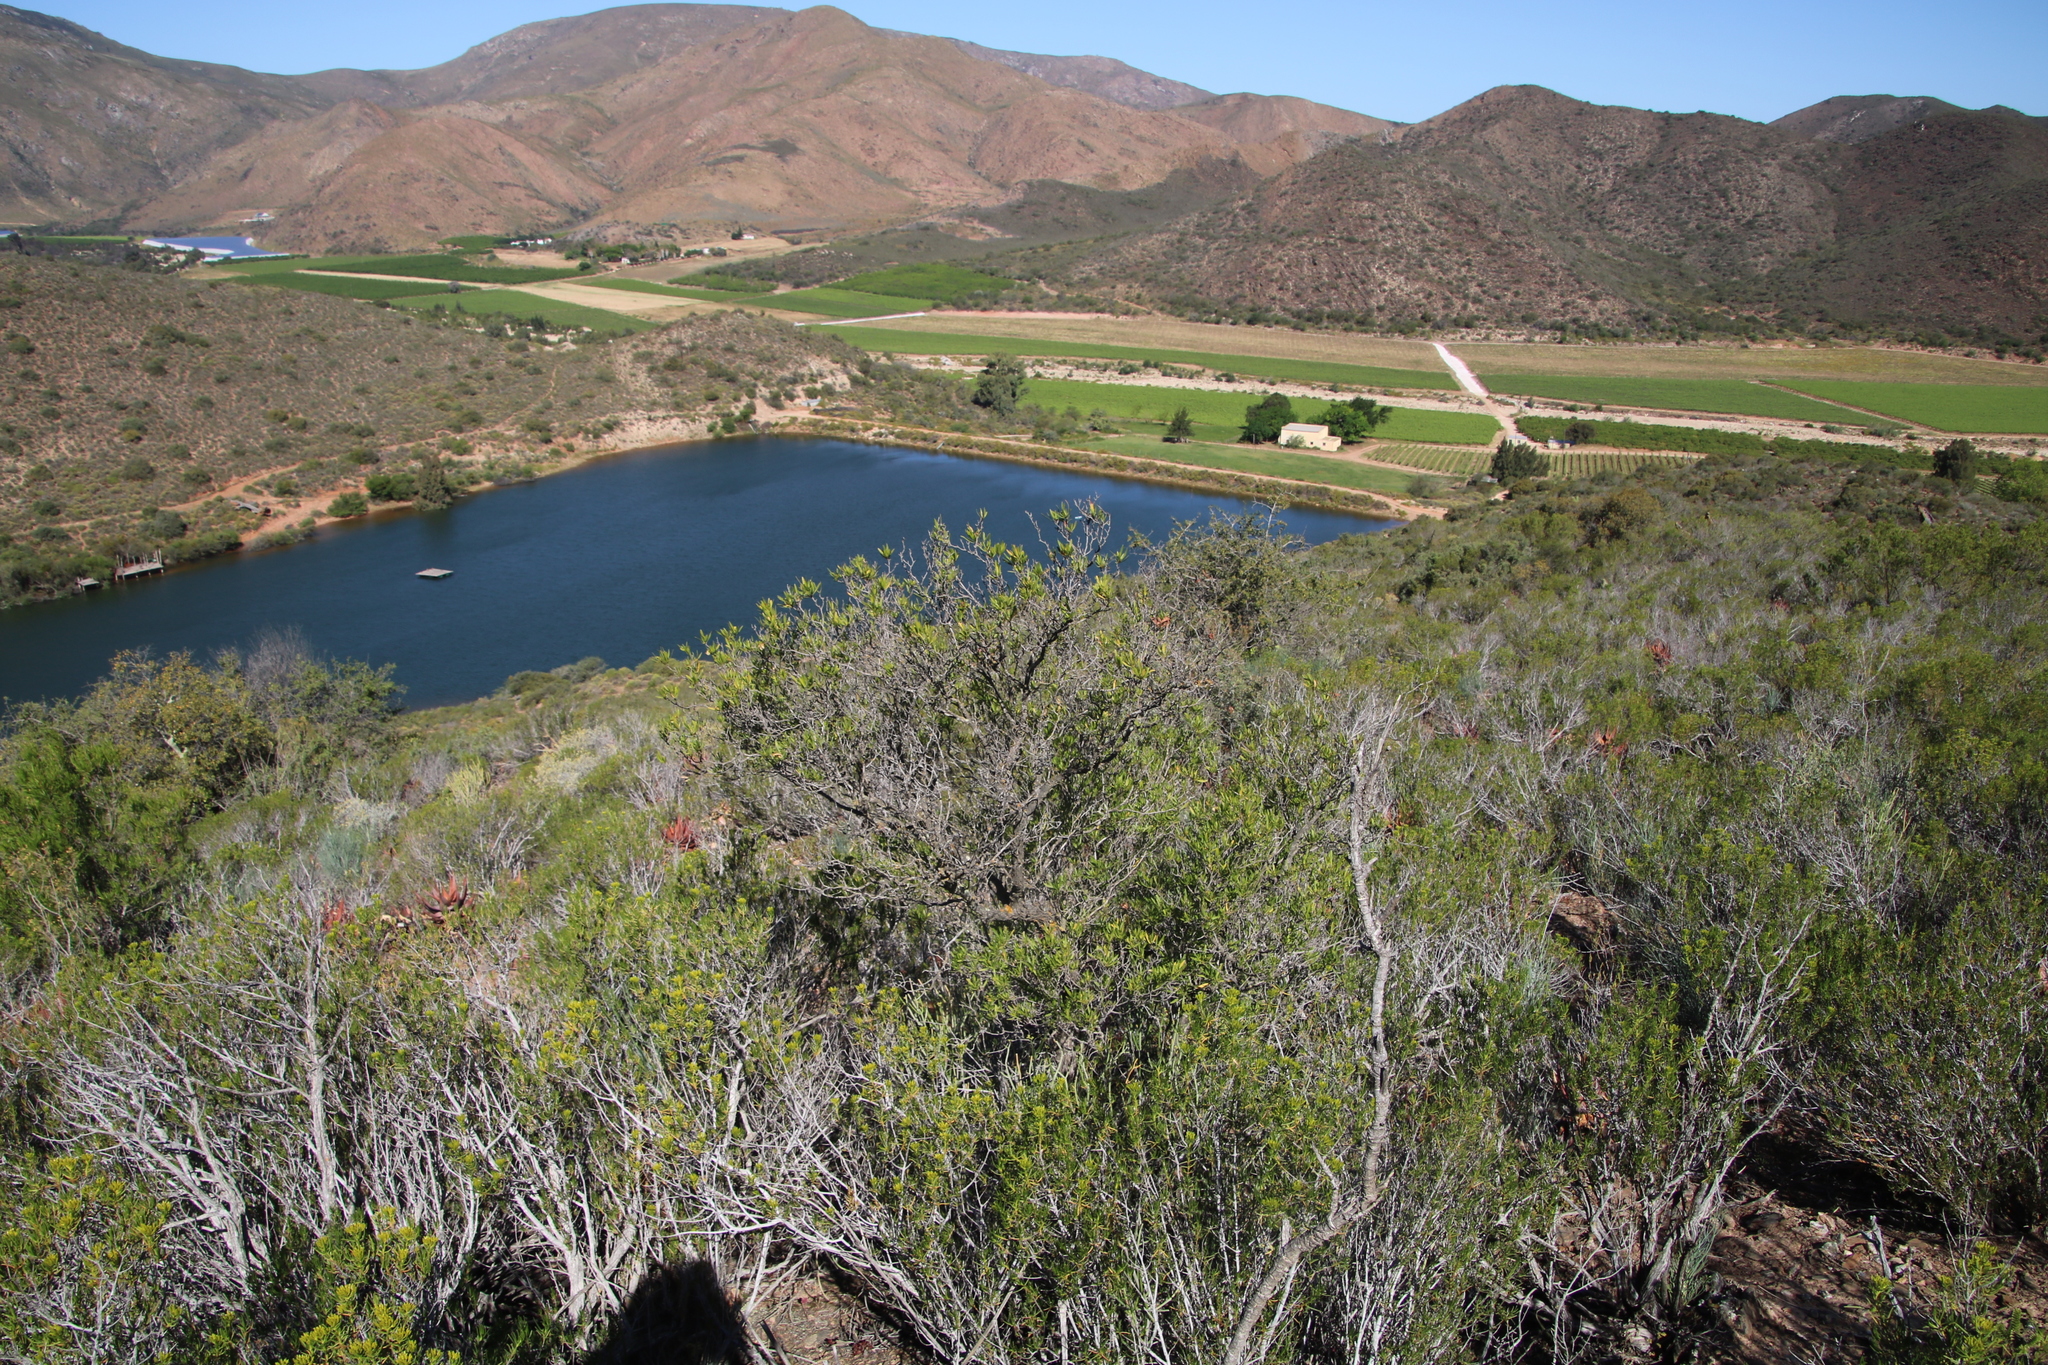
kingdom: Plantae
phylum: Tracheophyta
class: Magnoliopsida
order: Sapindales
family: Sapindaceae
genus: Dodonaea
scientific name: Dodonaea viscosa
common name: Hopbush
